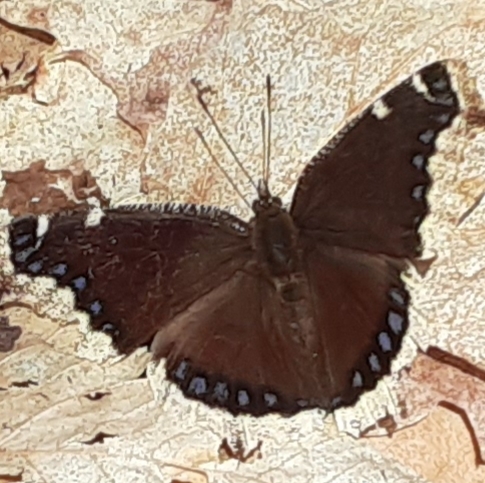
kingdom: Animalia
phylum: Arthropoda
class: Insecta
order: Lepidoptera
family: Nymphalidae
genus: Nymphalis
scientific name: Nymphalis antiopa
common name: Camberwell beauty
